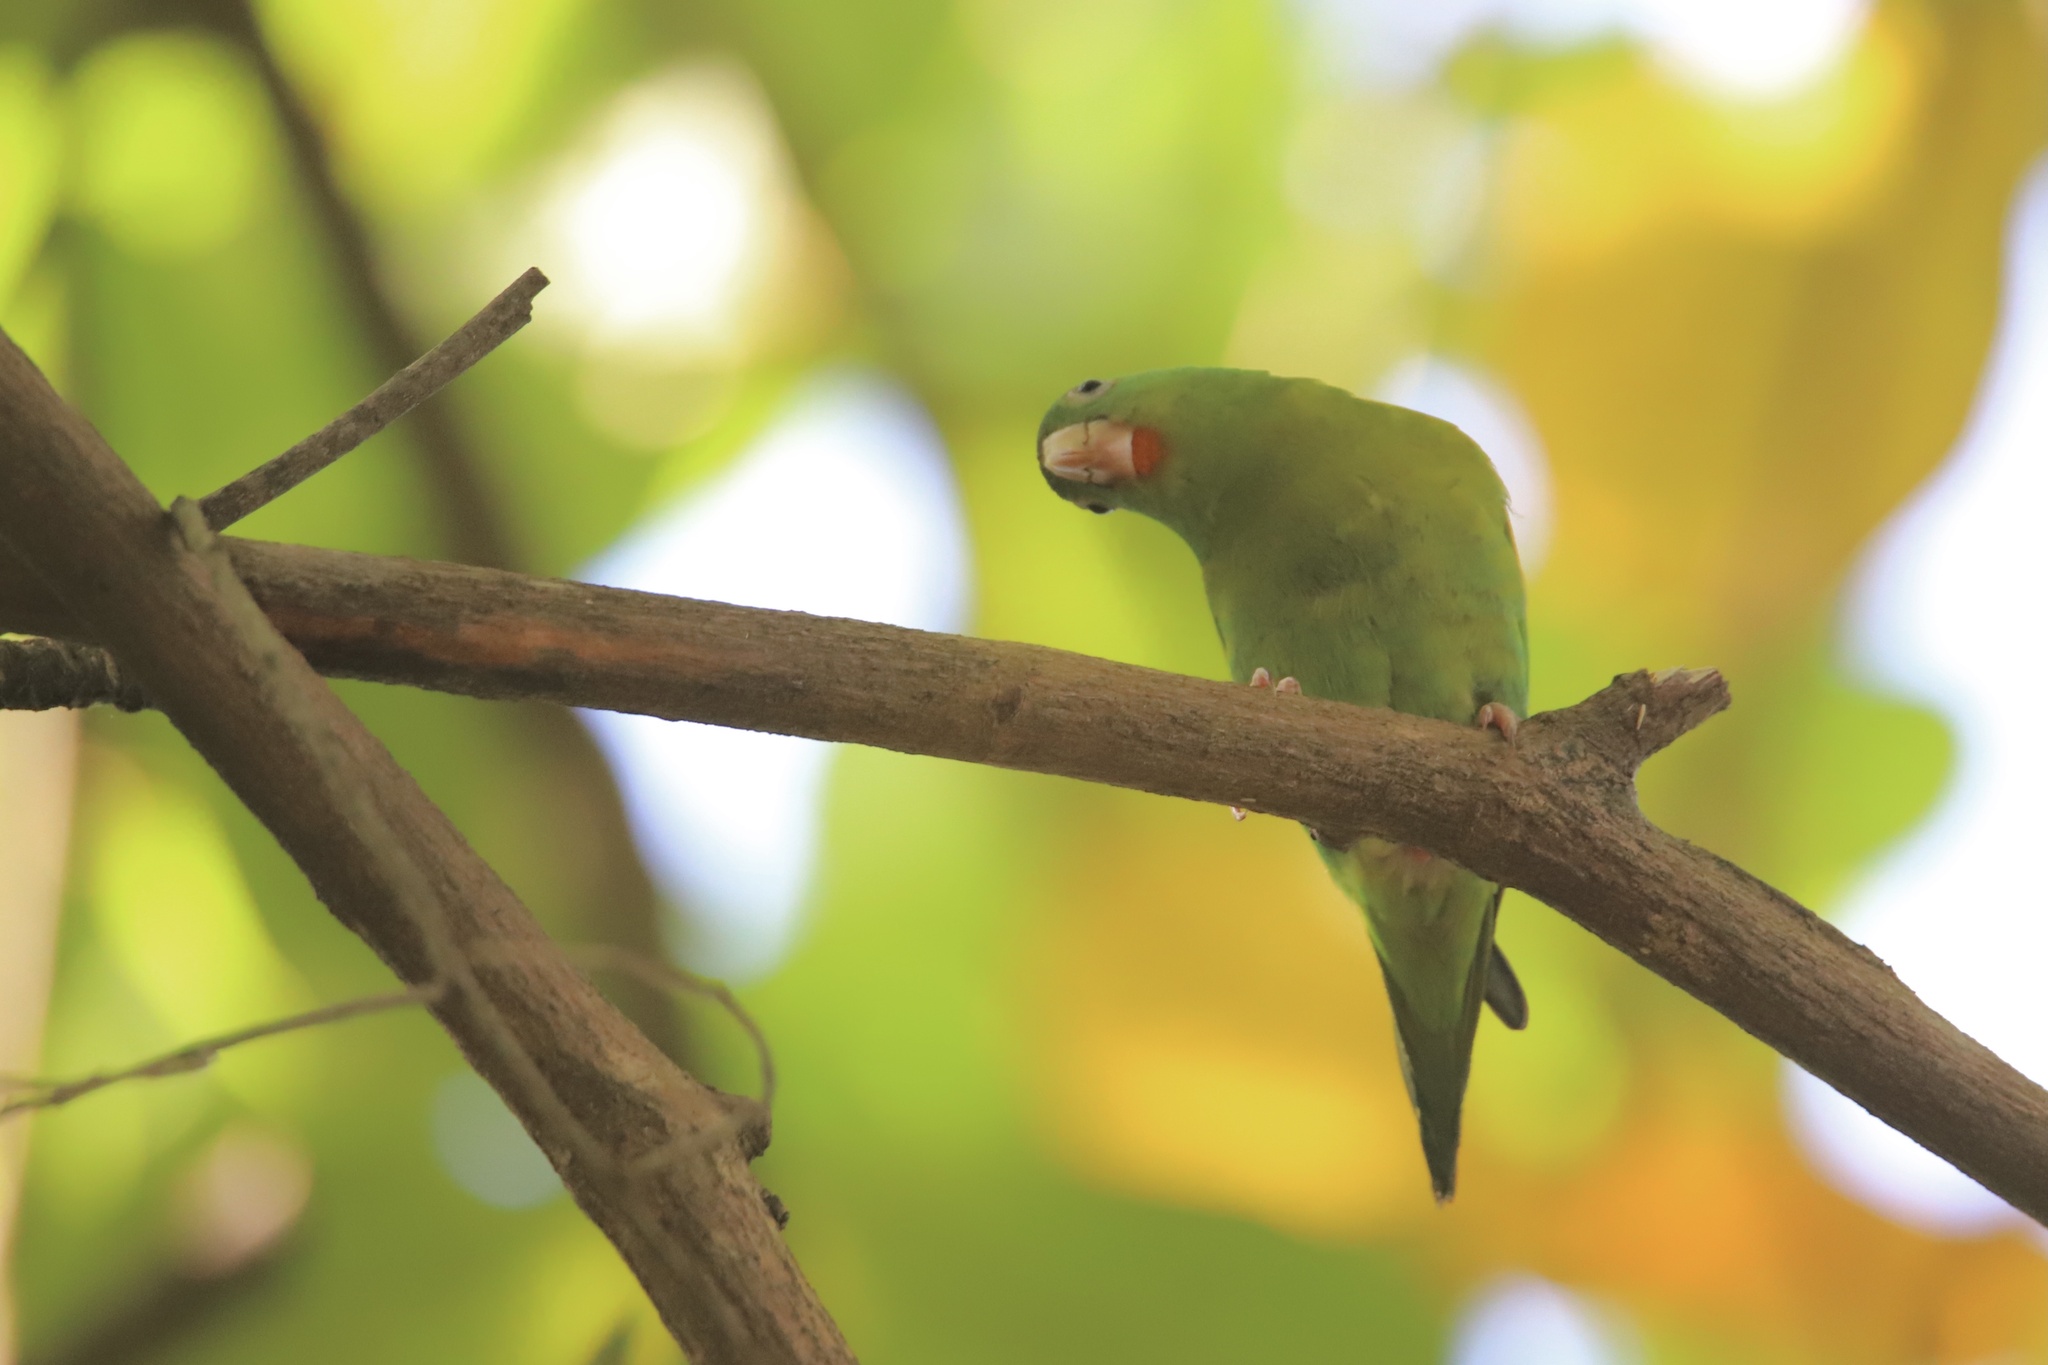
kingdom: Animalia
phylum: Chordata
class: Aves
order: Psittaciformes
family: Psittacidae
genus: Brotogeris
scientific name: Brotogeris jugularis
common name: Orange-chinned parakeet
